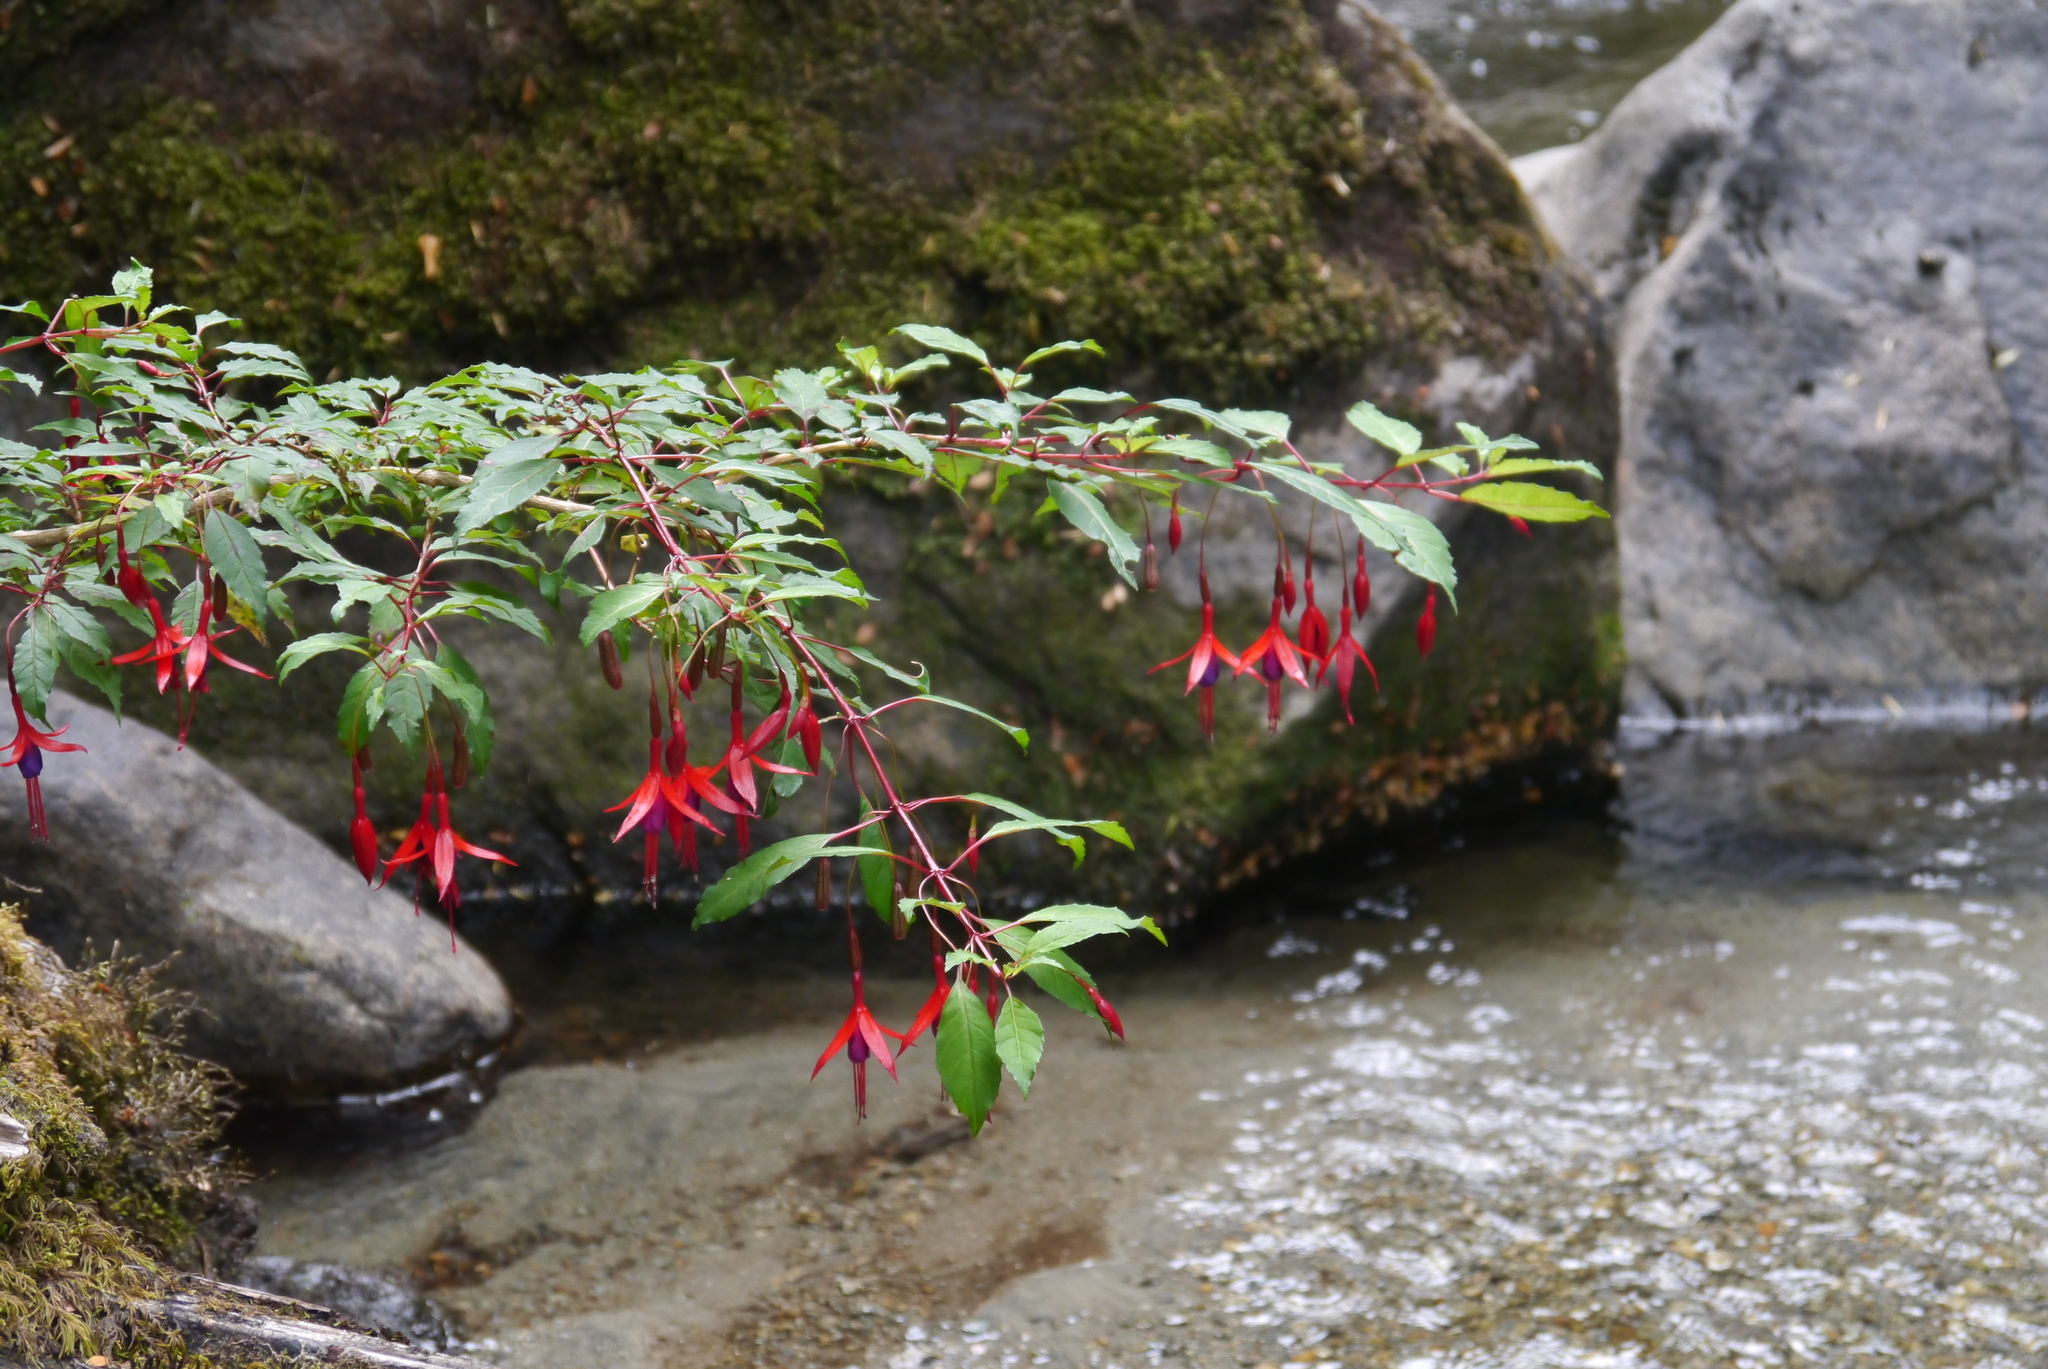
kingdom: Plantae
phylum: Tracheophyta
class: Magnoliopsida
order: Myrtales
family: Onagraceae
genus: Fuchsia
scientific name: Fuchsia magellanica
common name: Hardy fuchsia
